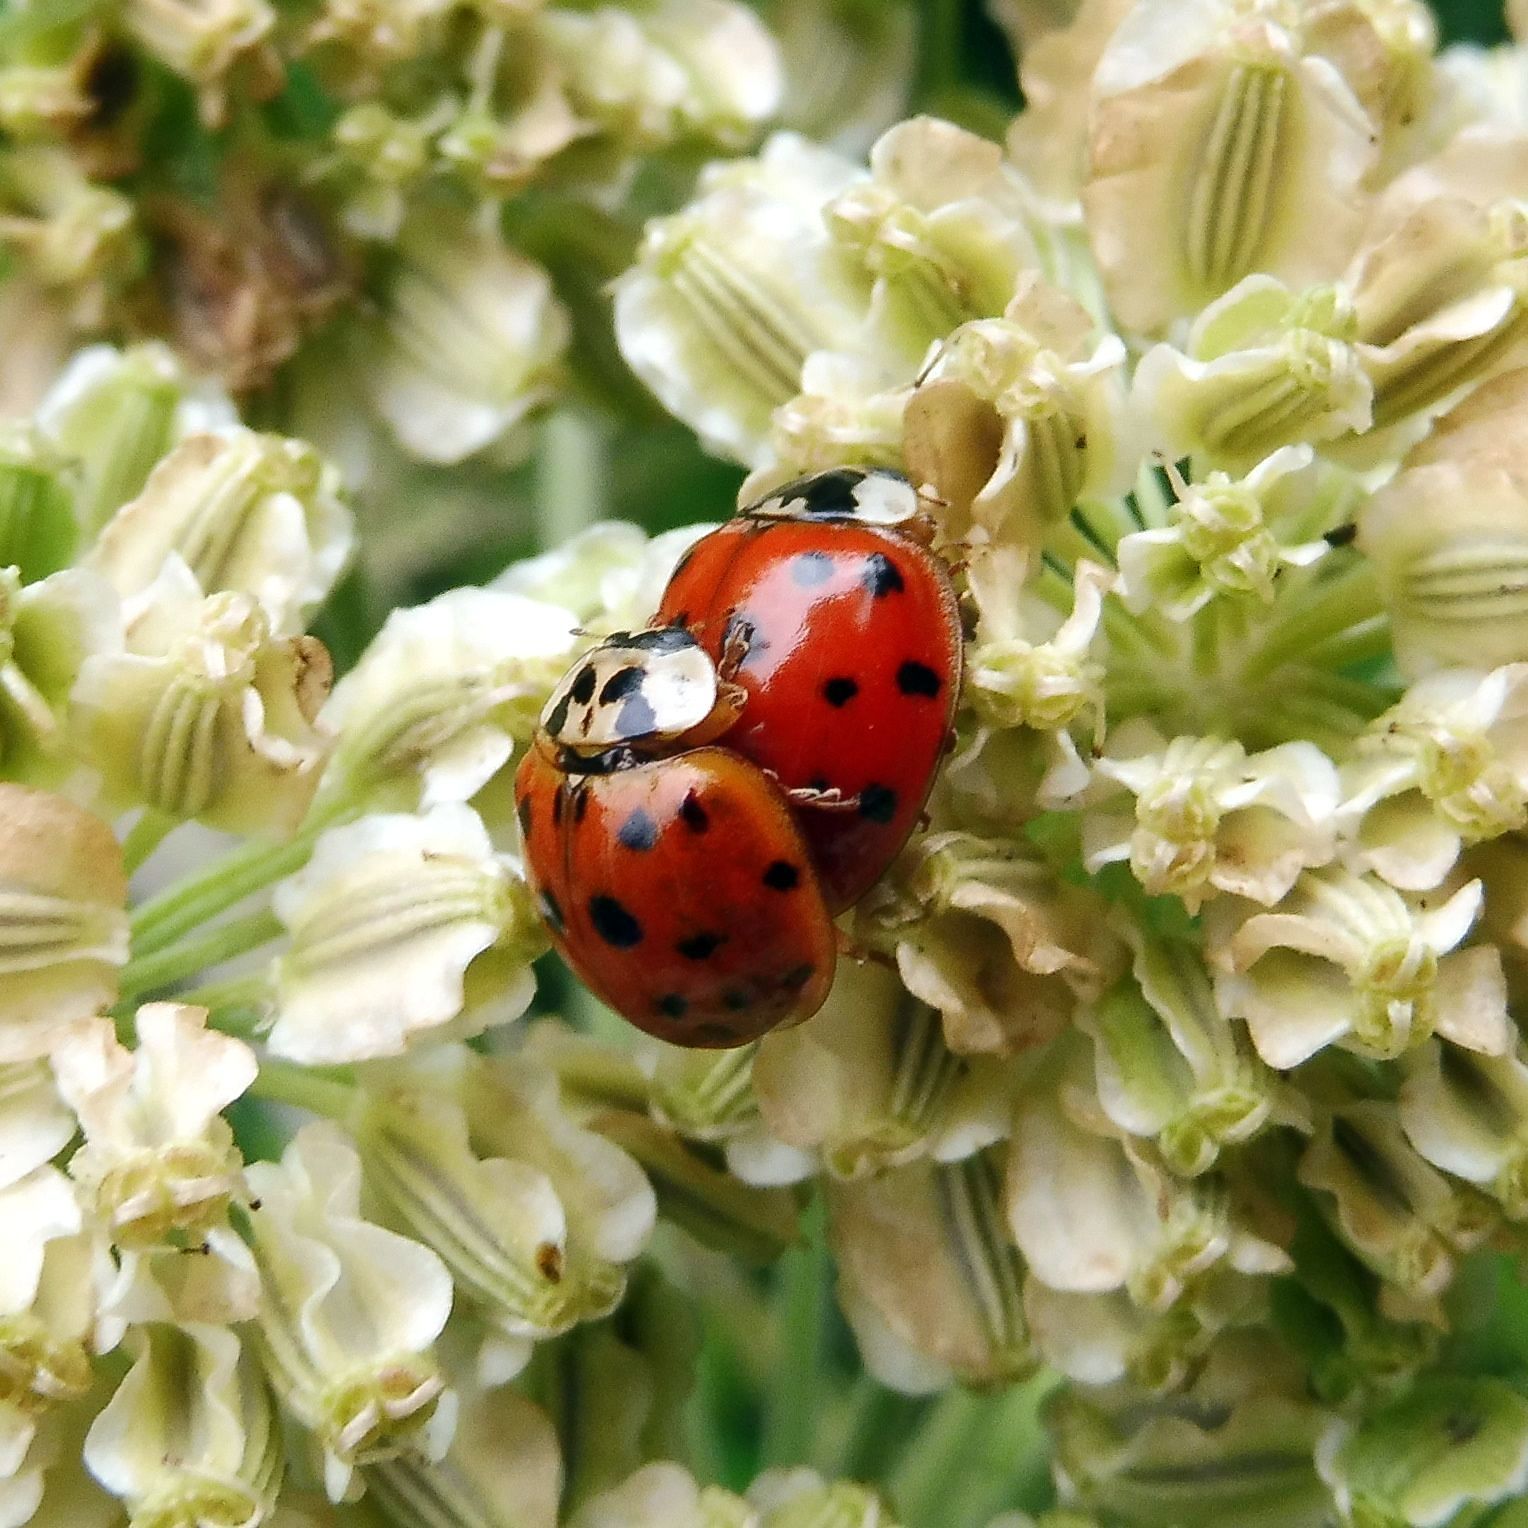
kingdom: Animalia
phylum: Arthropoda
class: Insecta
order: Coleoptera
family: Coccinellidae
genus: Harmonia
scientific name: Harmonia axyridis
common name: Harlequin ladybird
